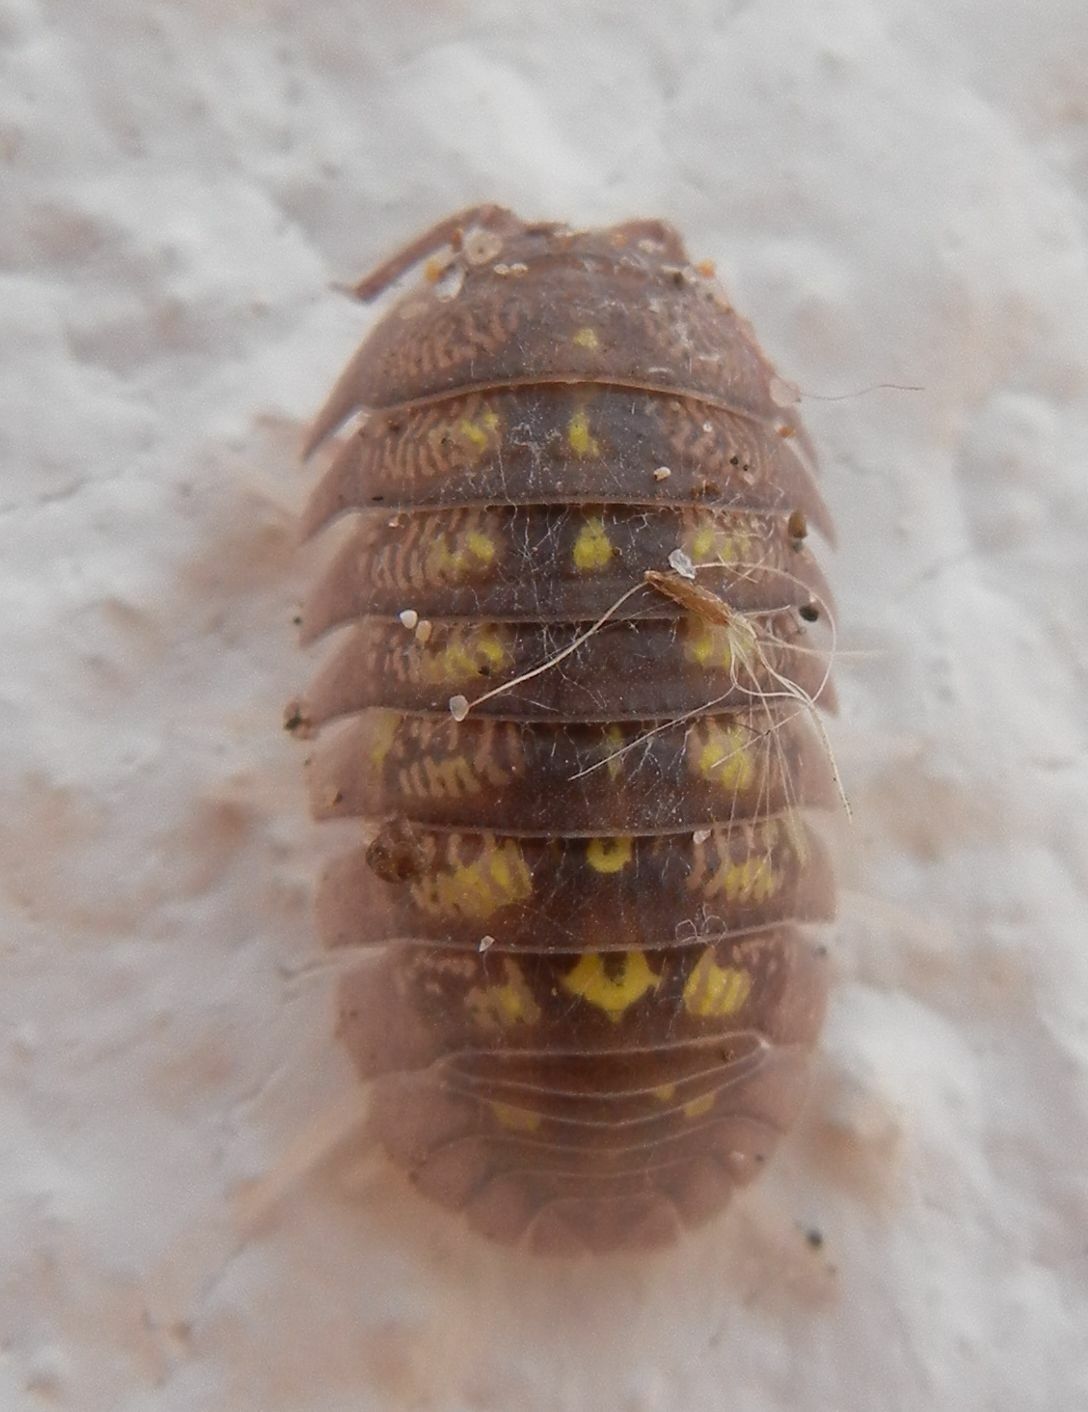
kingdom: Animalia
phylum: Arthropoda
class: Malacostraca
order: Isopoda
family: Armadillidiidae
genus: Armadillidium
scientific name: Armadillidium granulatum
